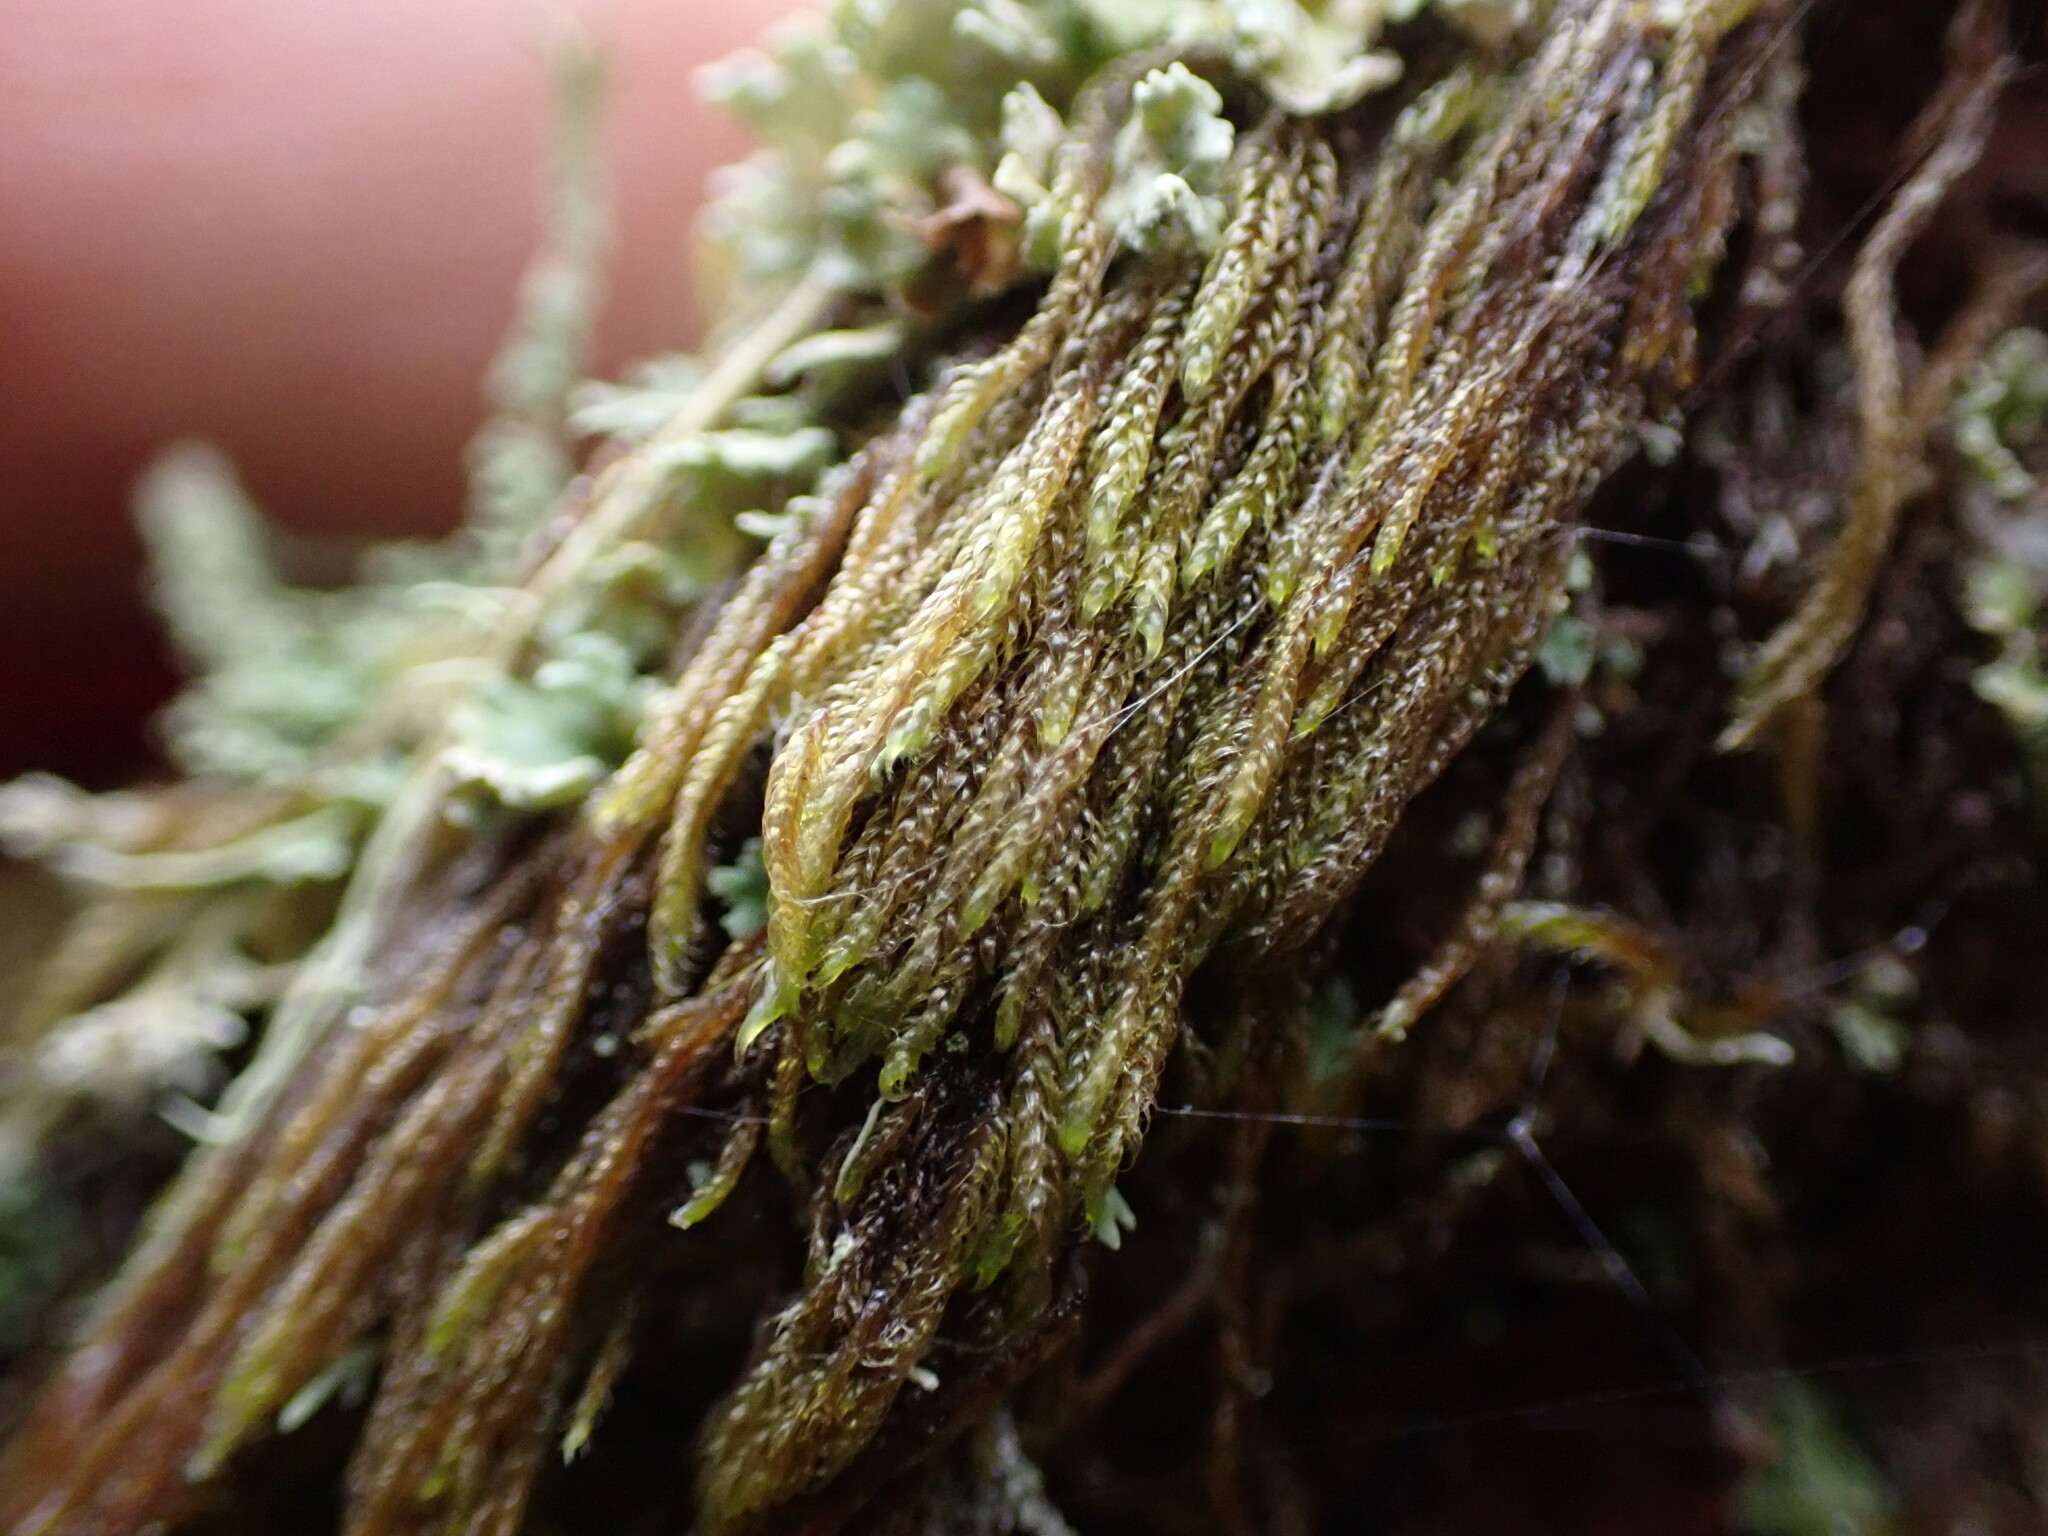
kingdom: Plantae
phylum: Bryophyta
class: Bryopsida
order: Hypnales
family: Pylaisiadelphaceae
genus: Trochophyllohypnum
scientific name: Trochophyllohypnum circinale
